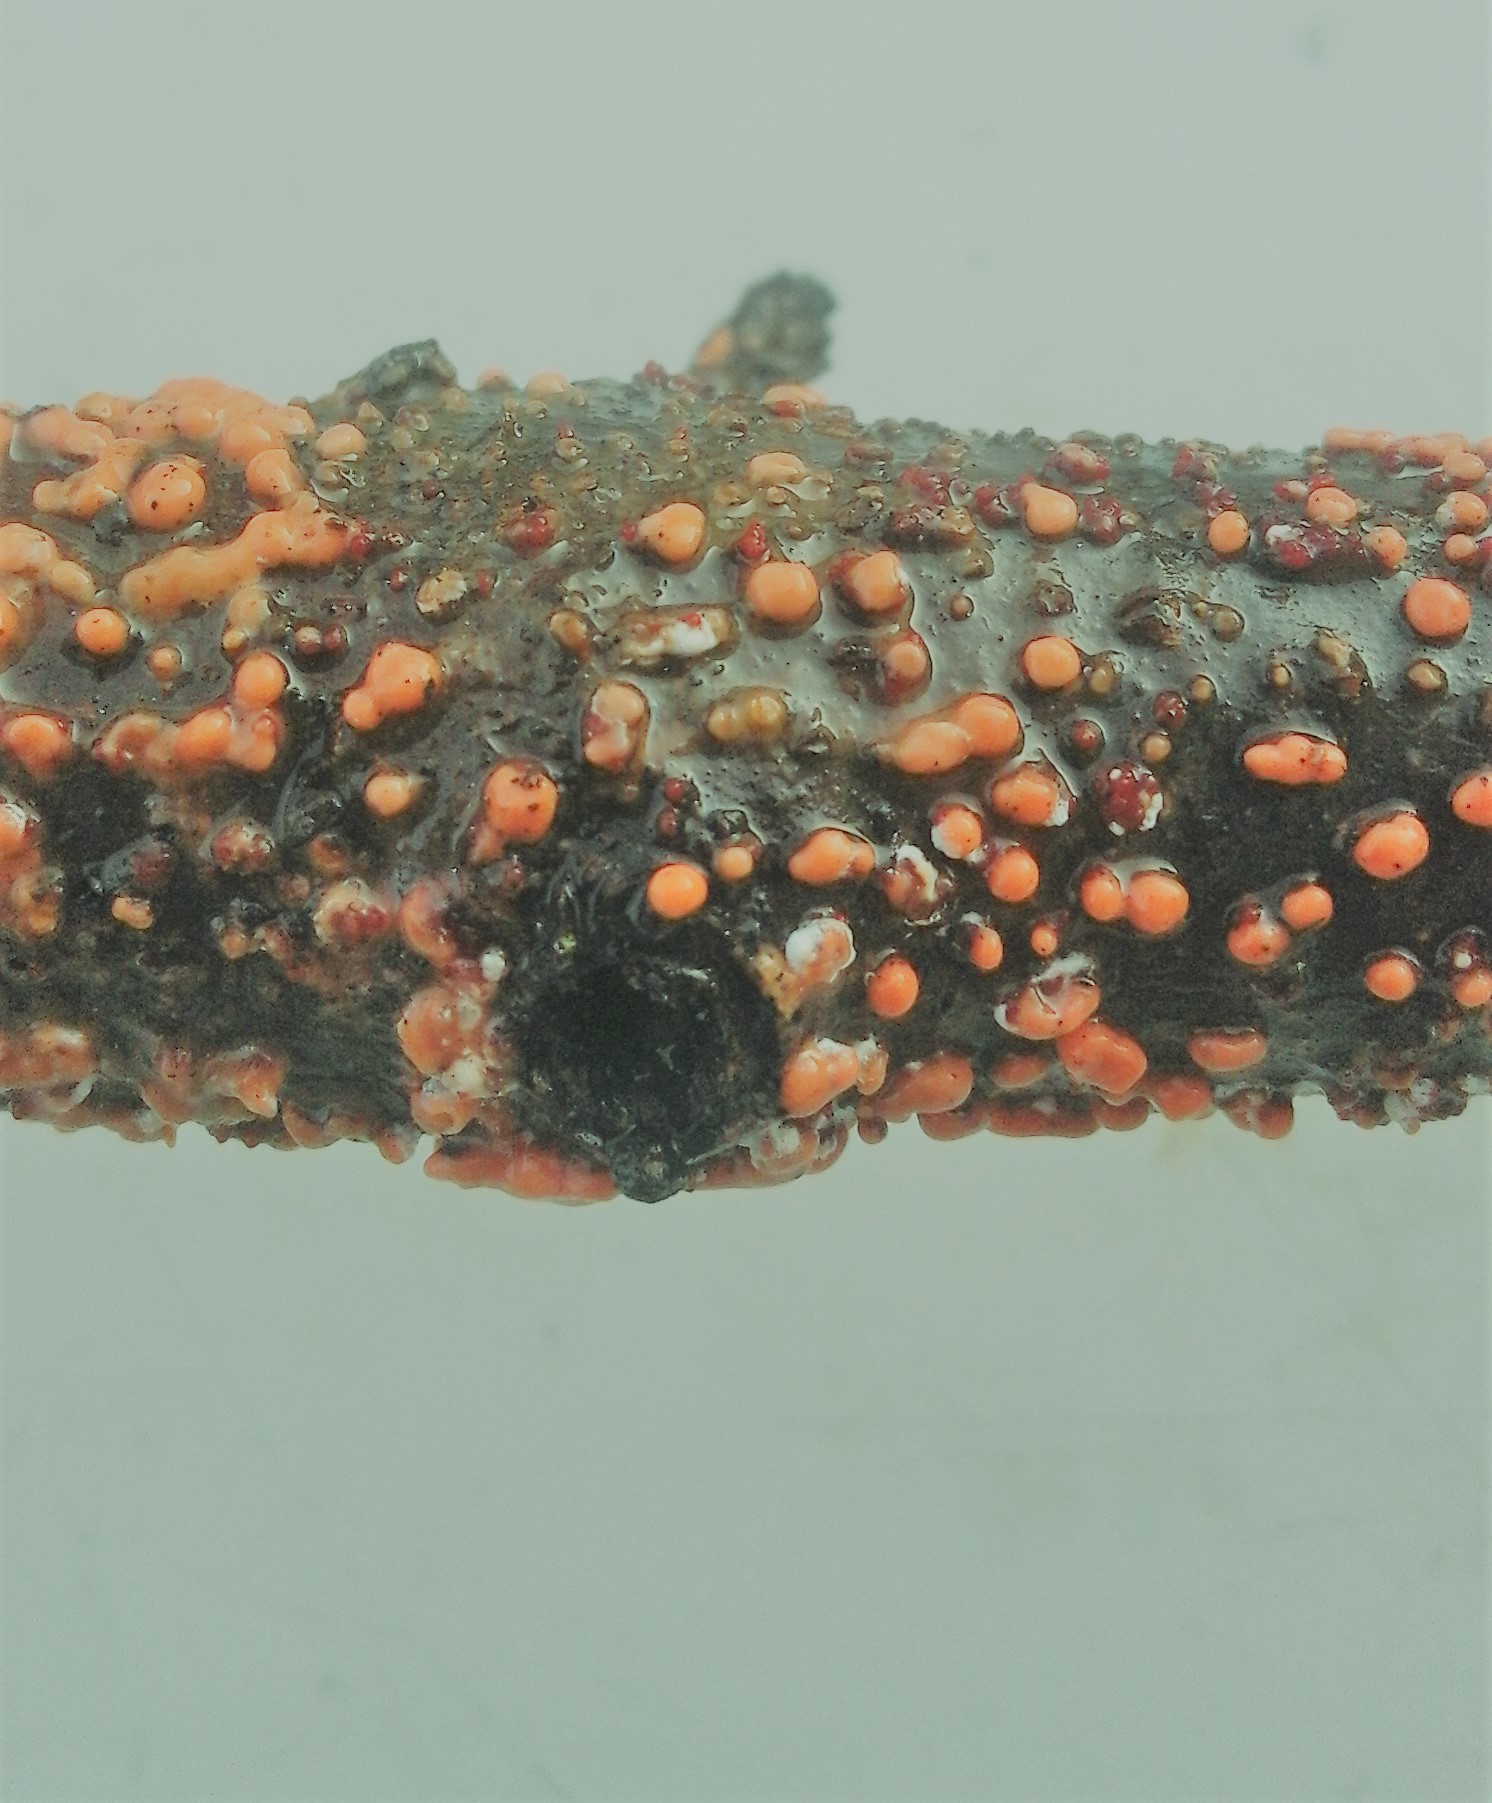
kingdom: Fungi
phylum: Ascomycota
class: Sordariomycetes
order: Hypocreales
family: Nectriaceae
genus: Nectria
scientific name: Nectria cinnabarina
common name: Coral spot
